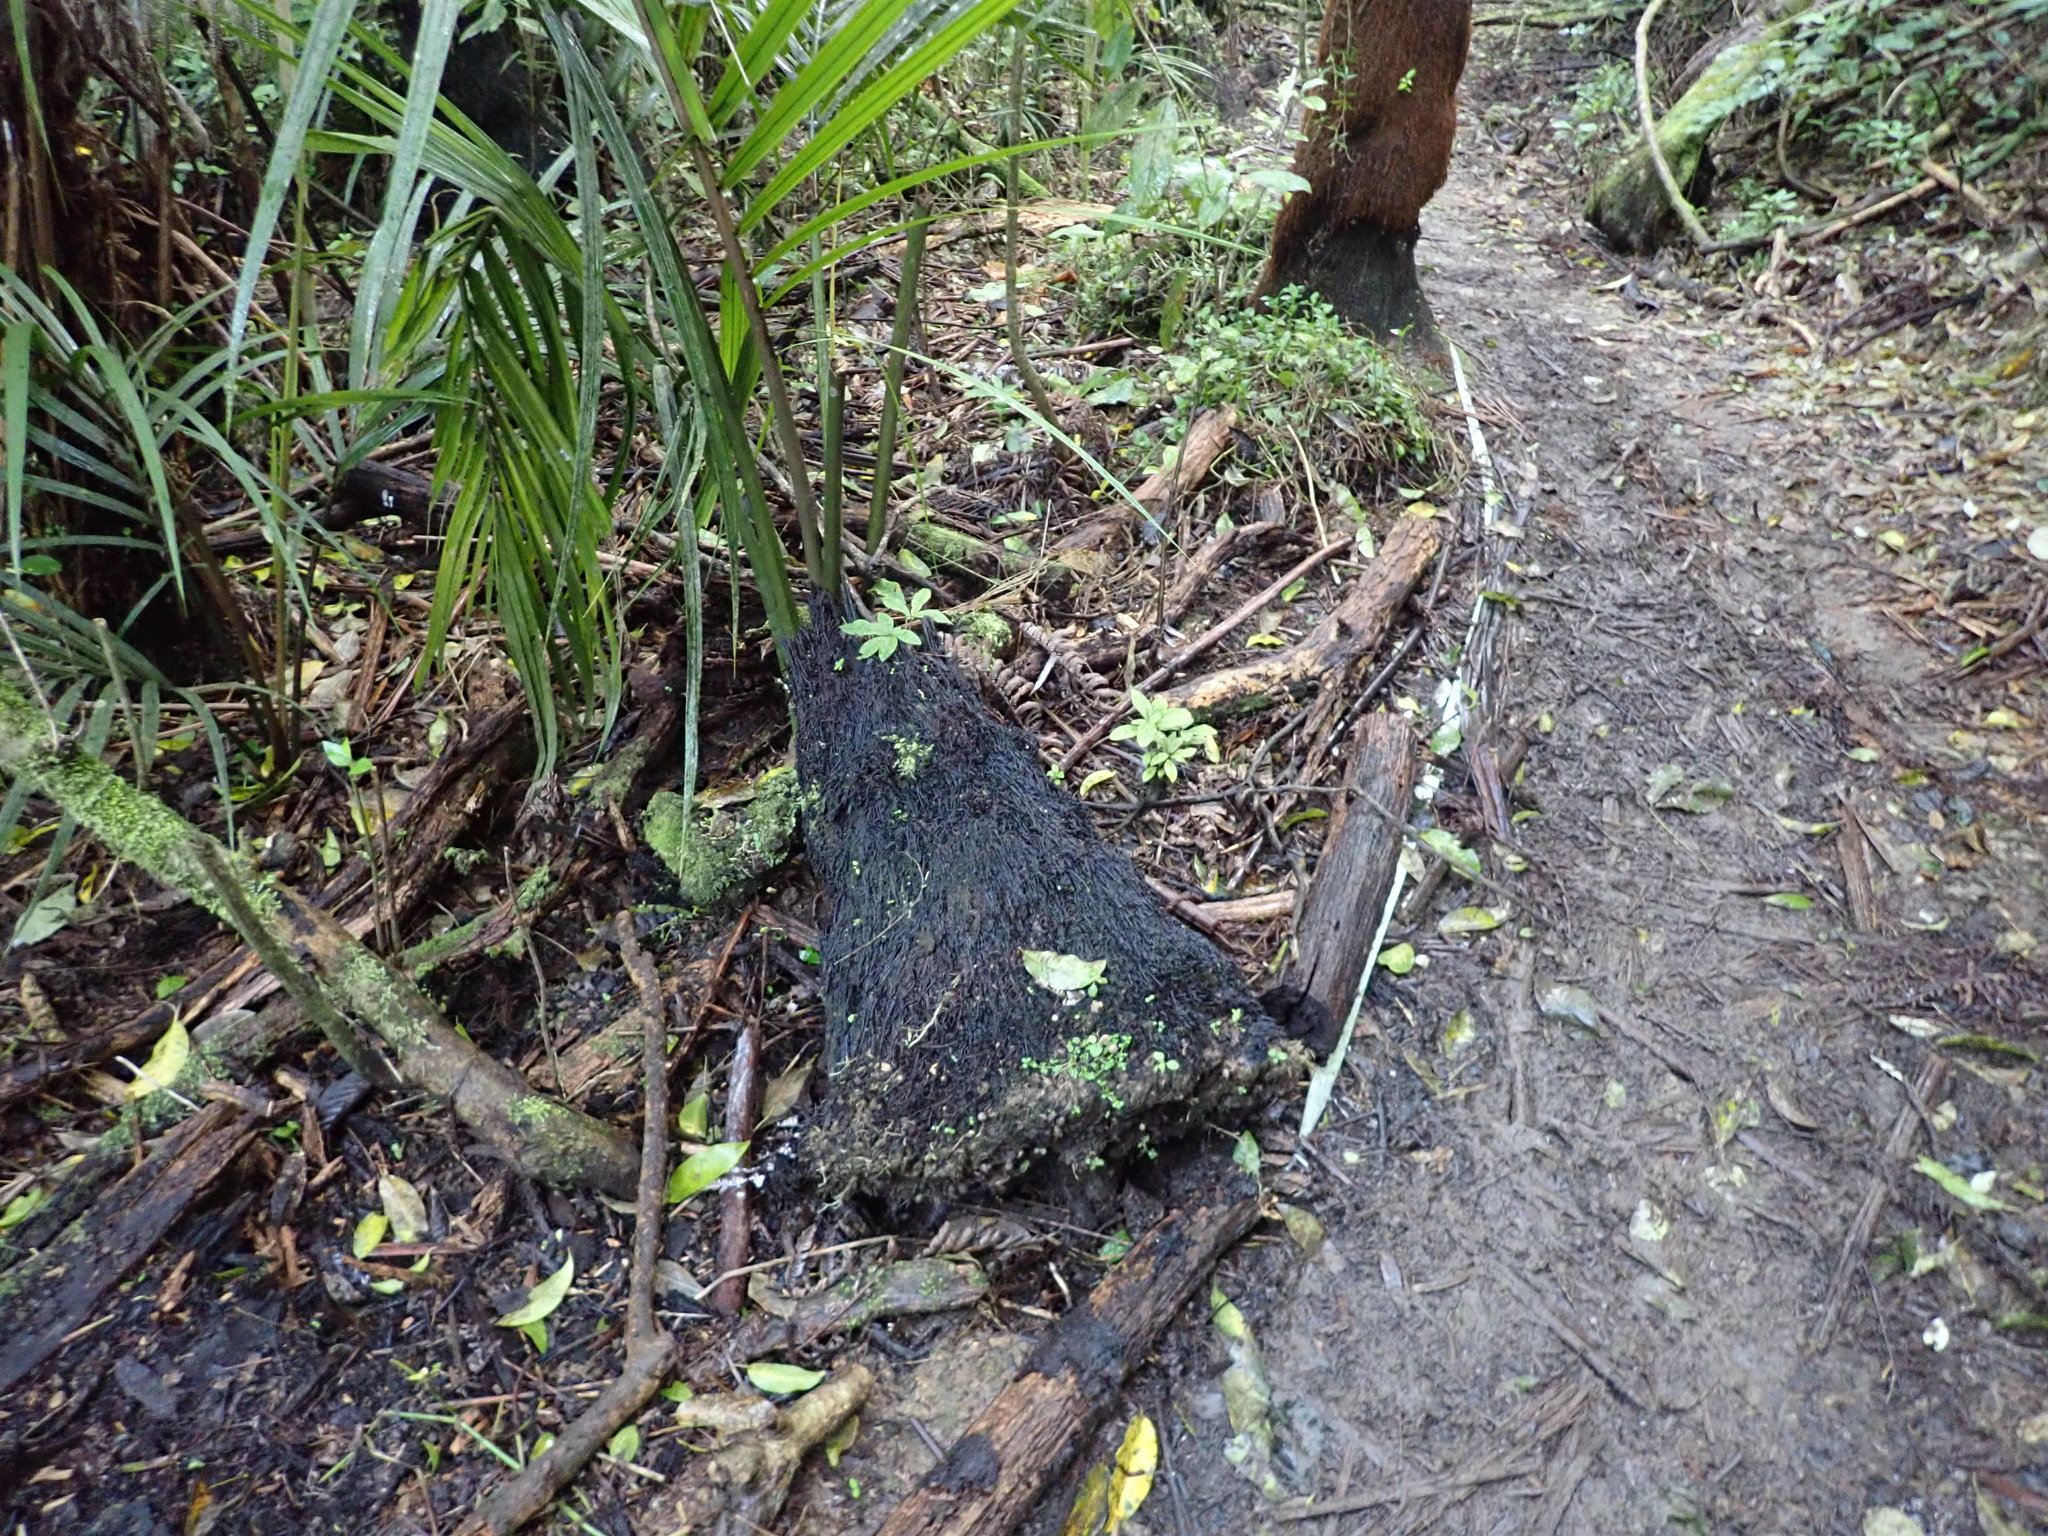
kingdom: Plantae
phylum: Tracheophyta
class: Magnoliopsida
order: Apiales
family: Araliaceae
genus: Schefflera
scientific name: Schefflera digitata
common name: Pate
